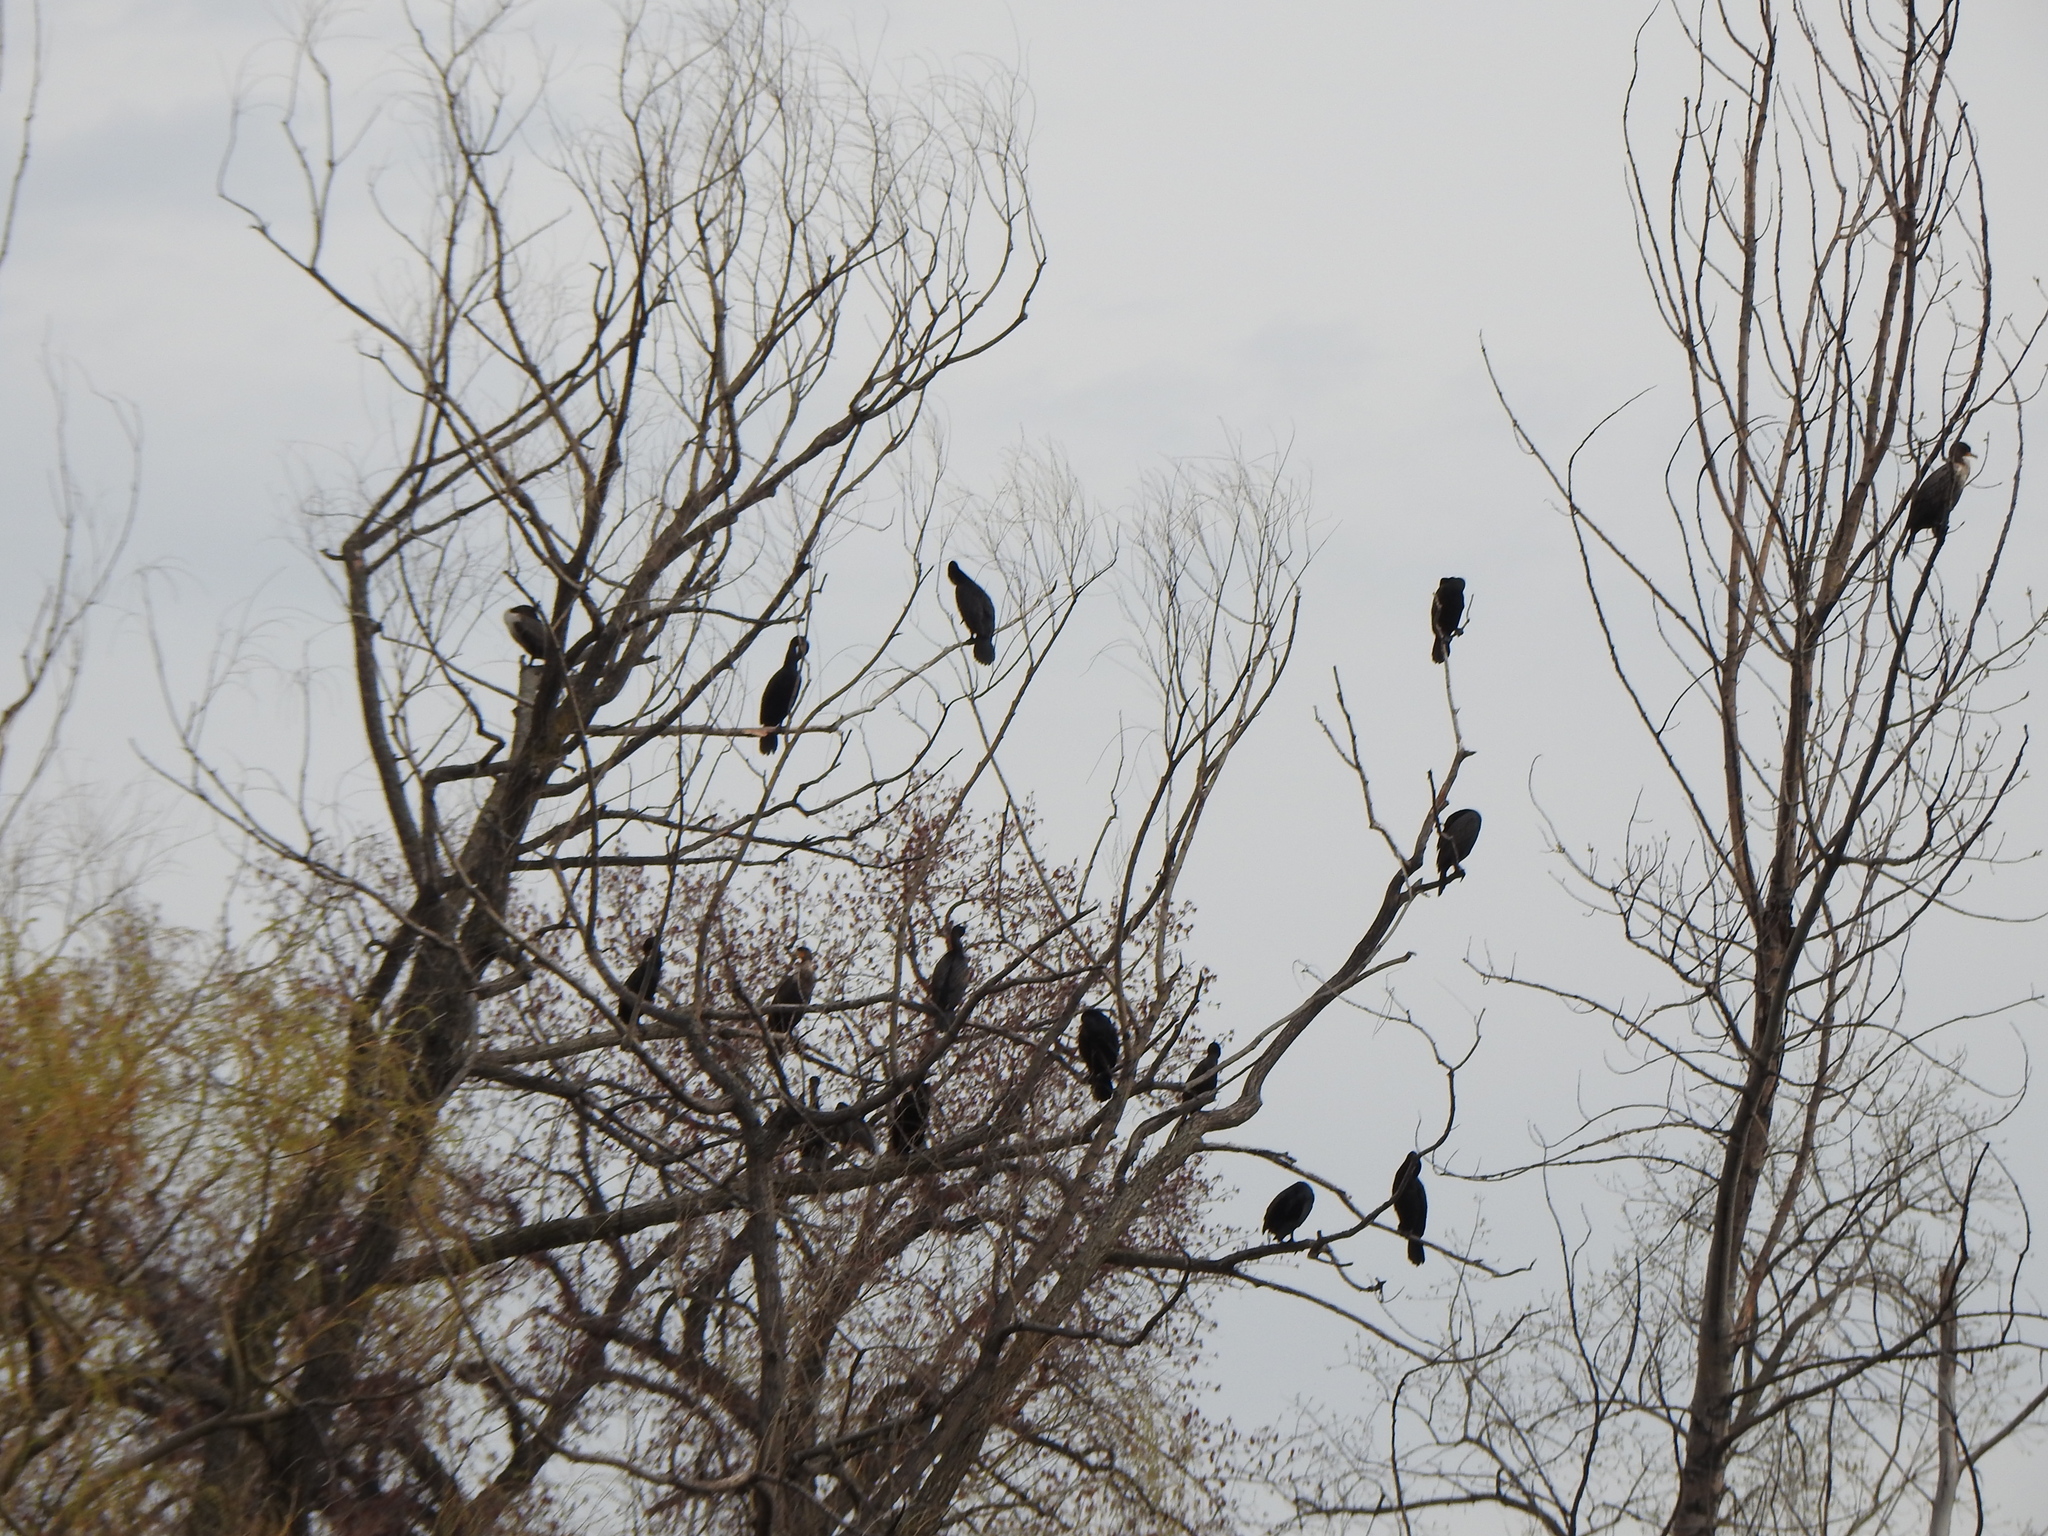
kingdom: Animalia
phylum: Chordata
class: Aves
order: Suliformes
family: Phalacrocoracidae
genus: Phalacrocorax
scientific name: Phalacrocorax auritus
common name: Double-crested cormorant
